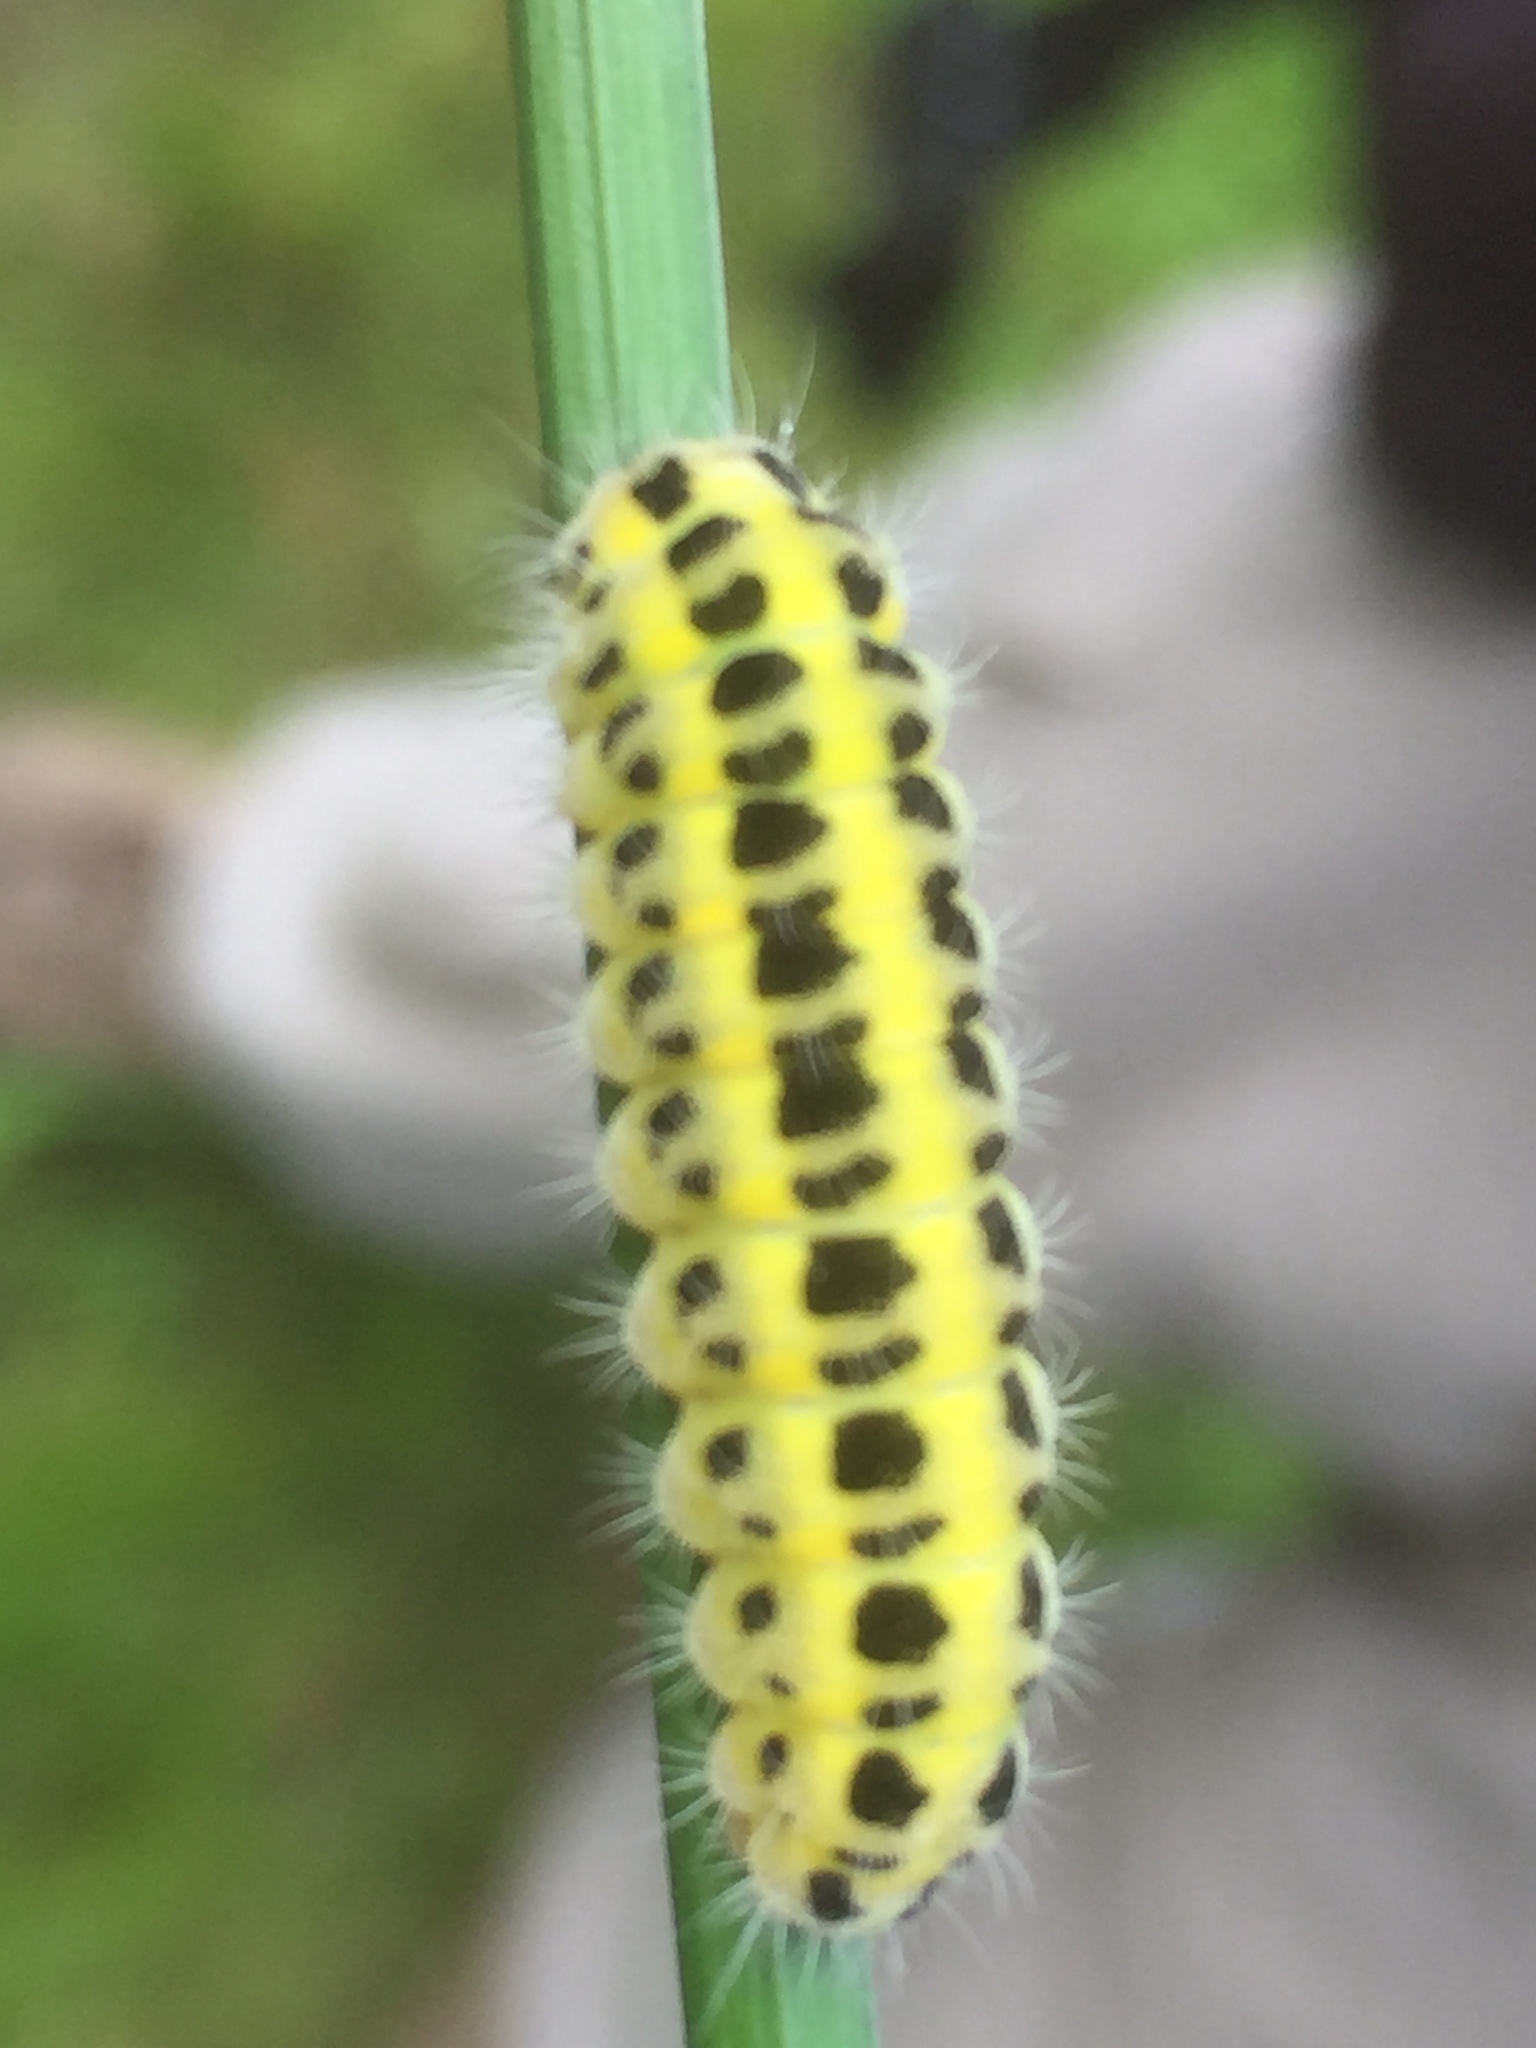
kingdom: Animalia
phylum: Arthropoda
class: Insecta
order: Lepidoptera
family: Zygaenidae
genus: Zygaena
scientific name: Zygaena filipendulae
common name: Six-spot burnet
